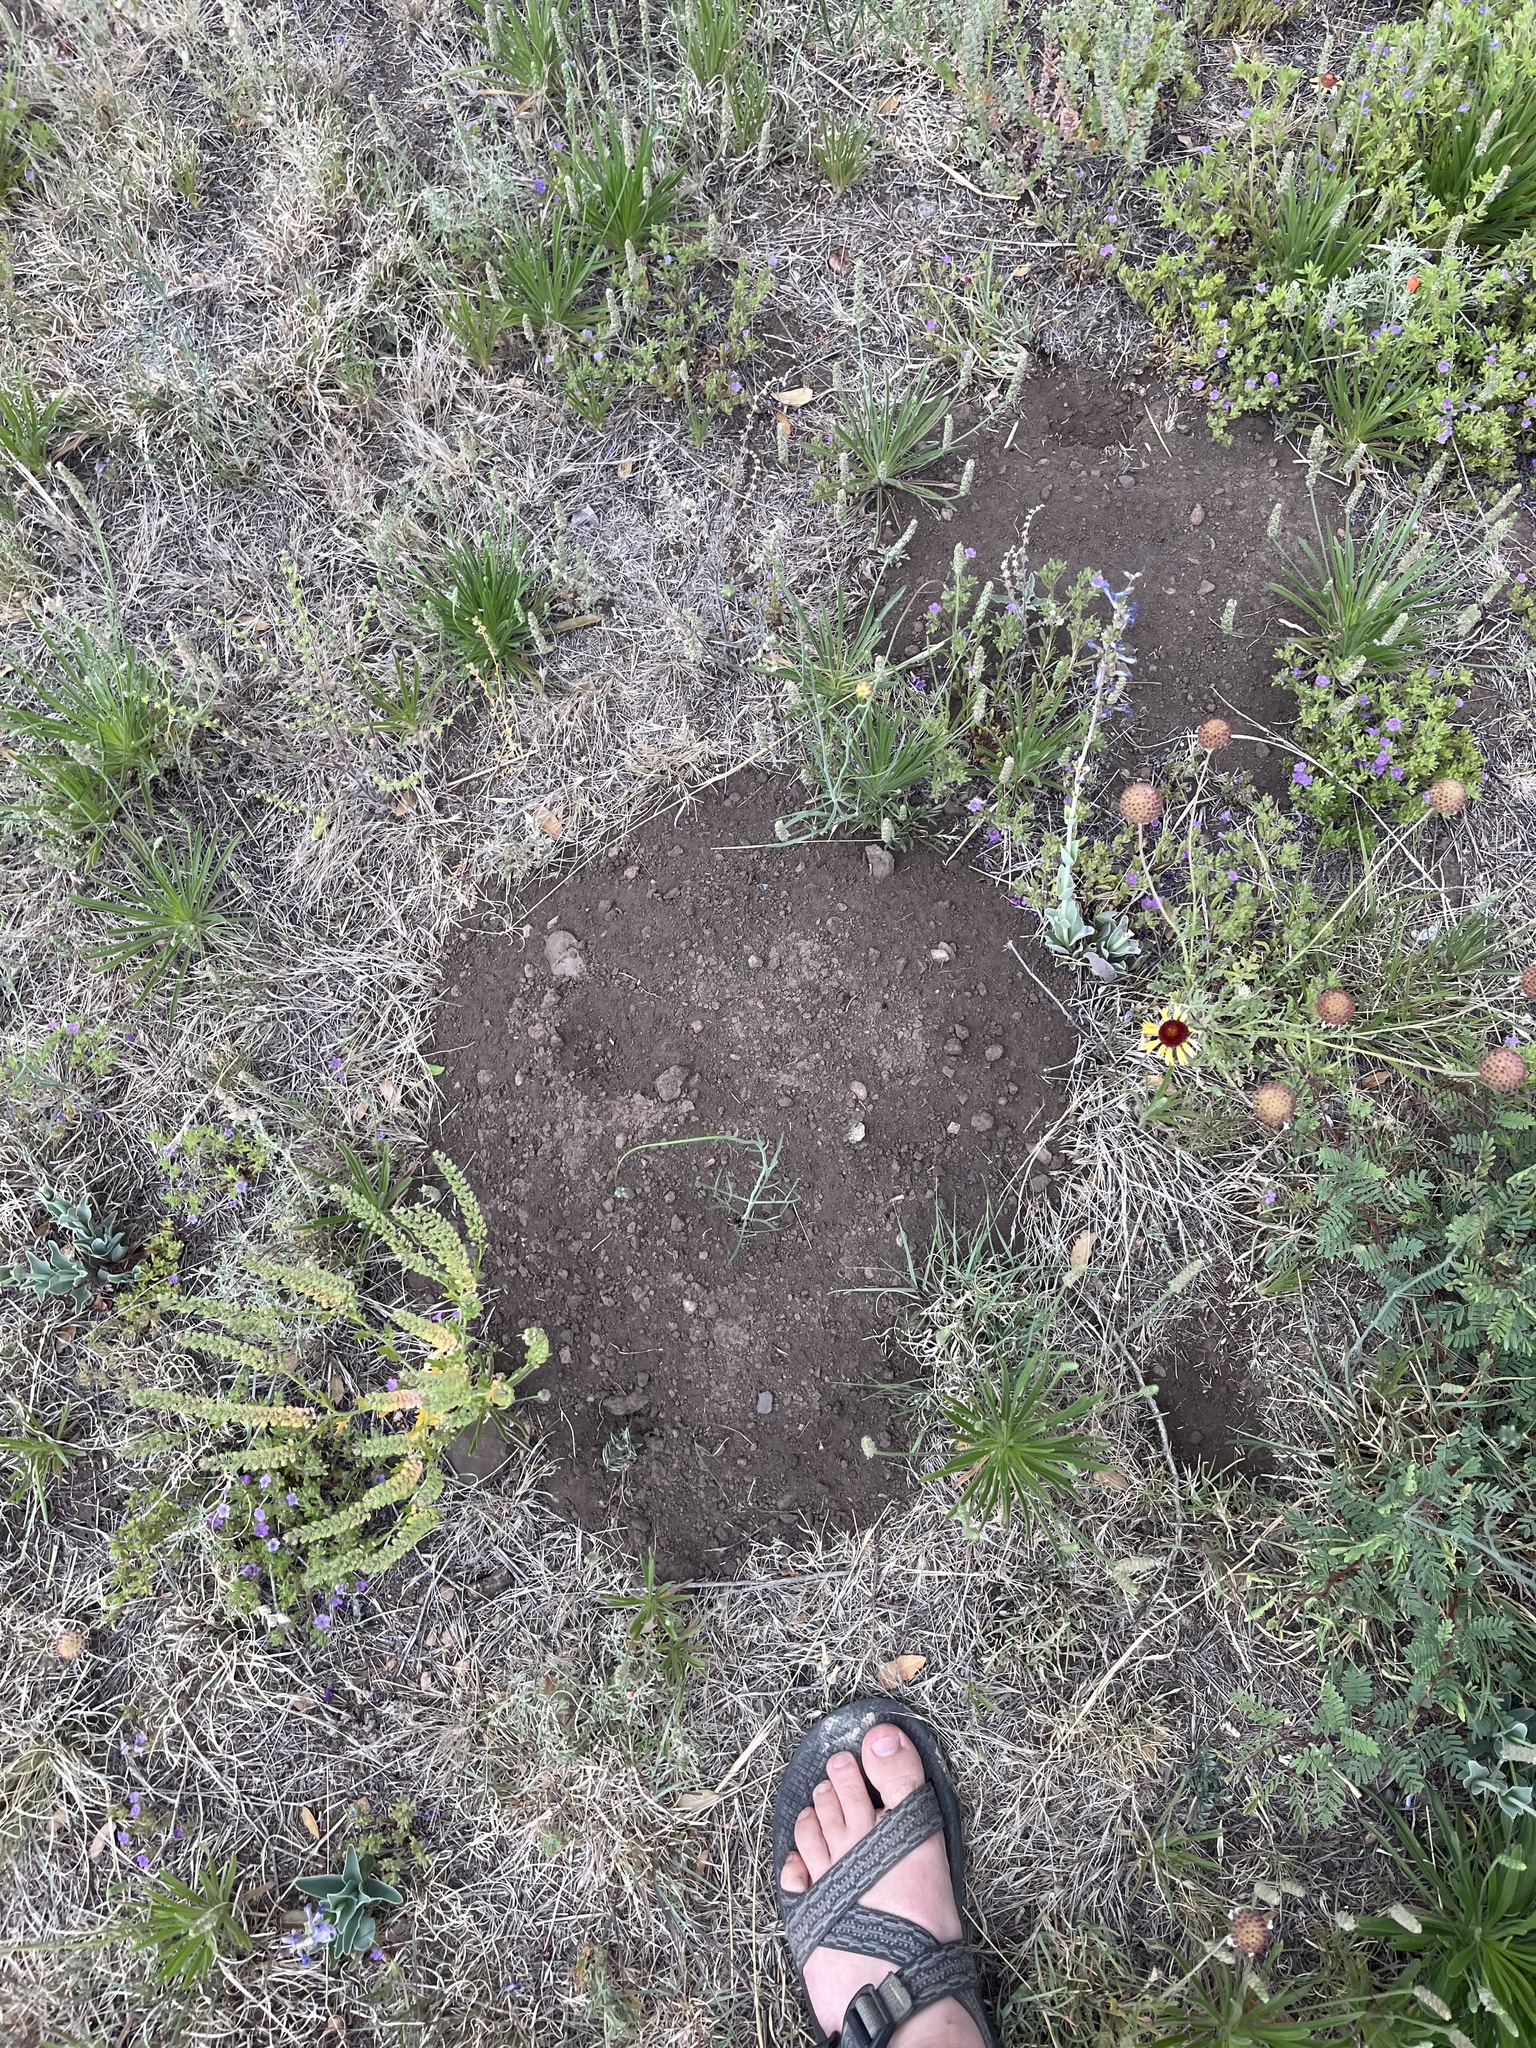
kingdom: Animalia
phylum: Chordata
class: Mammalia
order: Rodentia
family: Geomyidae
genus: Thomomys
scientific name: Thomomys bottae
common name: Botta's pocket gopher
